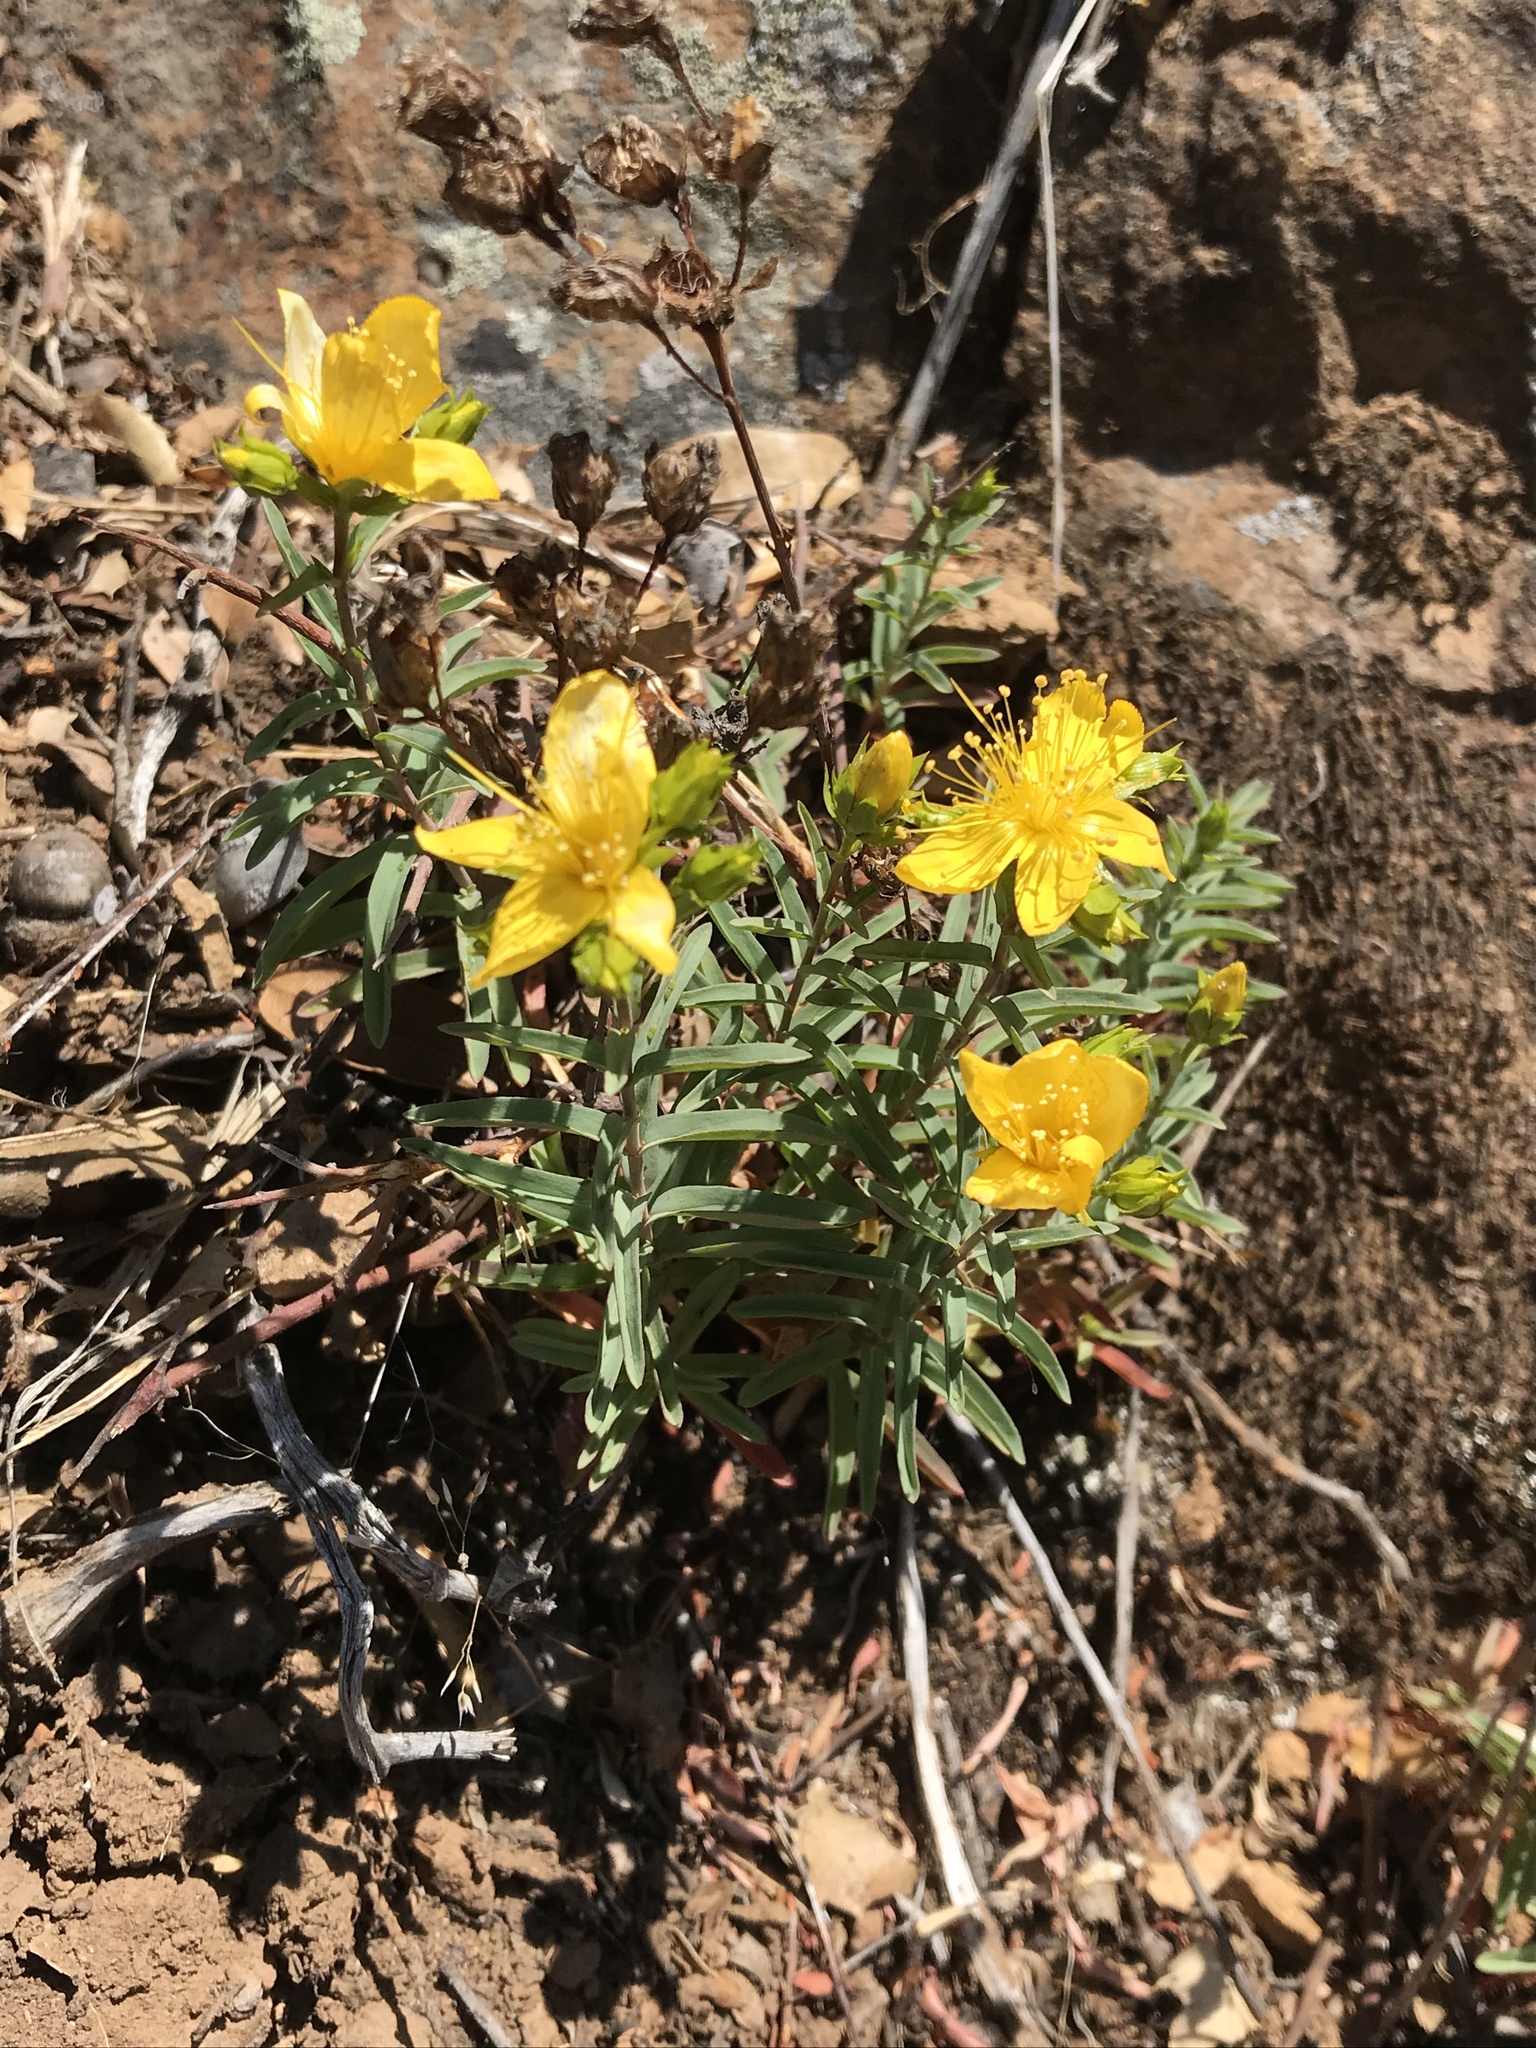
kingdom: Plantae
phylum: Tracheophyta
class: Magnoliopsida
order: Malpighiales
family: Hypericaceae
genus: Hypericum
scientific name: Hypericum concinnum
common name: Gold-wire
